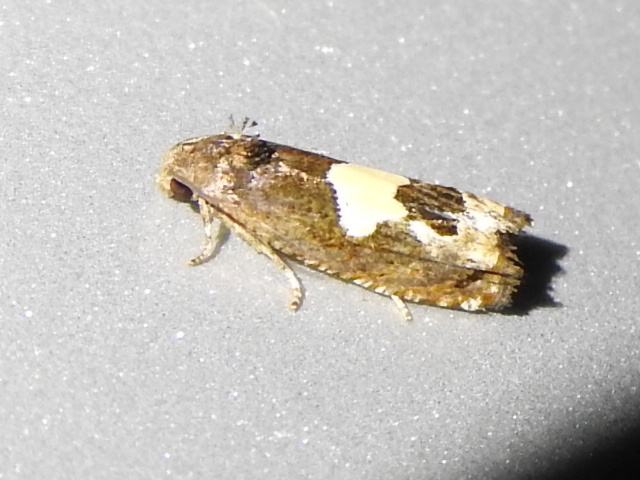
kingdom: Animalia
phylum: Arthropoda
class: Insecta
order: Lepidoptera
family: Tortricidae
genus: Epiblema
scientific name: Epiblema otiosana
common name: Bidens borer moth
